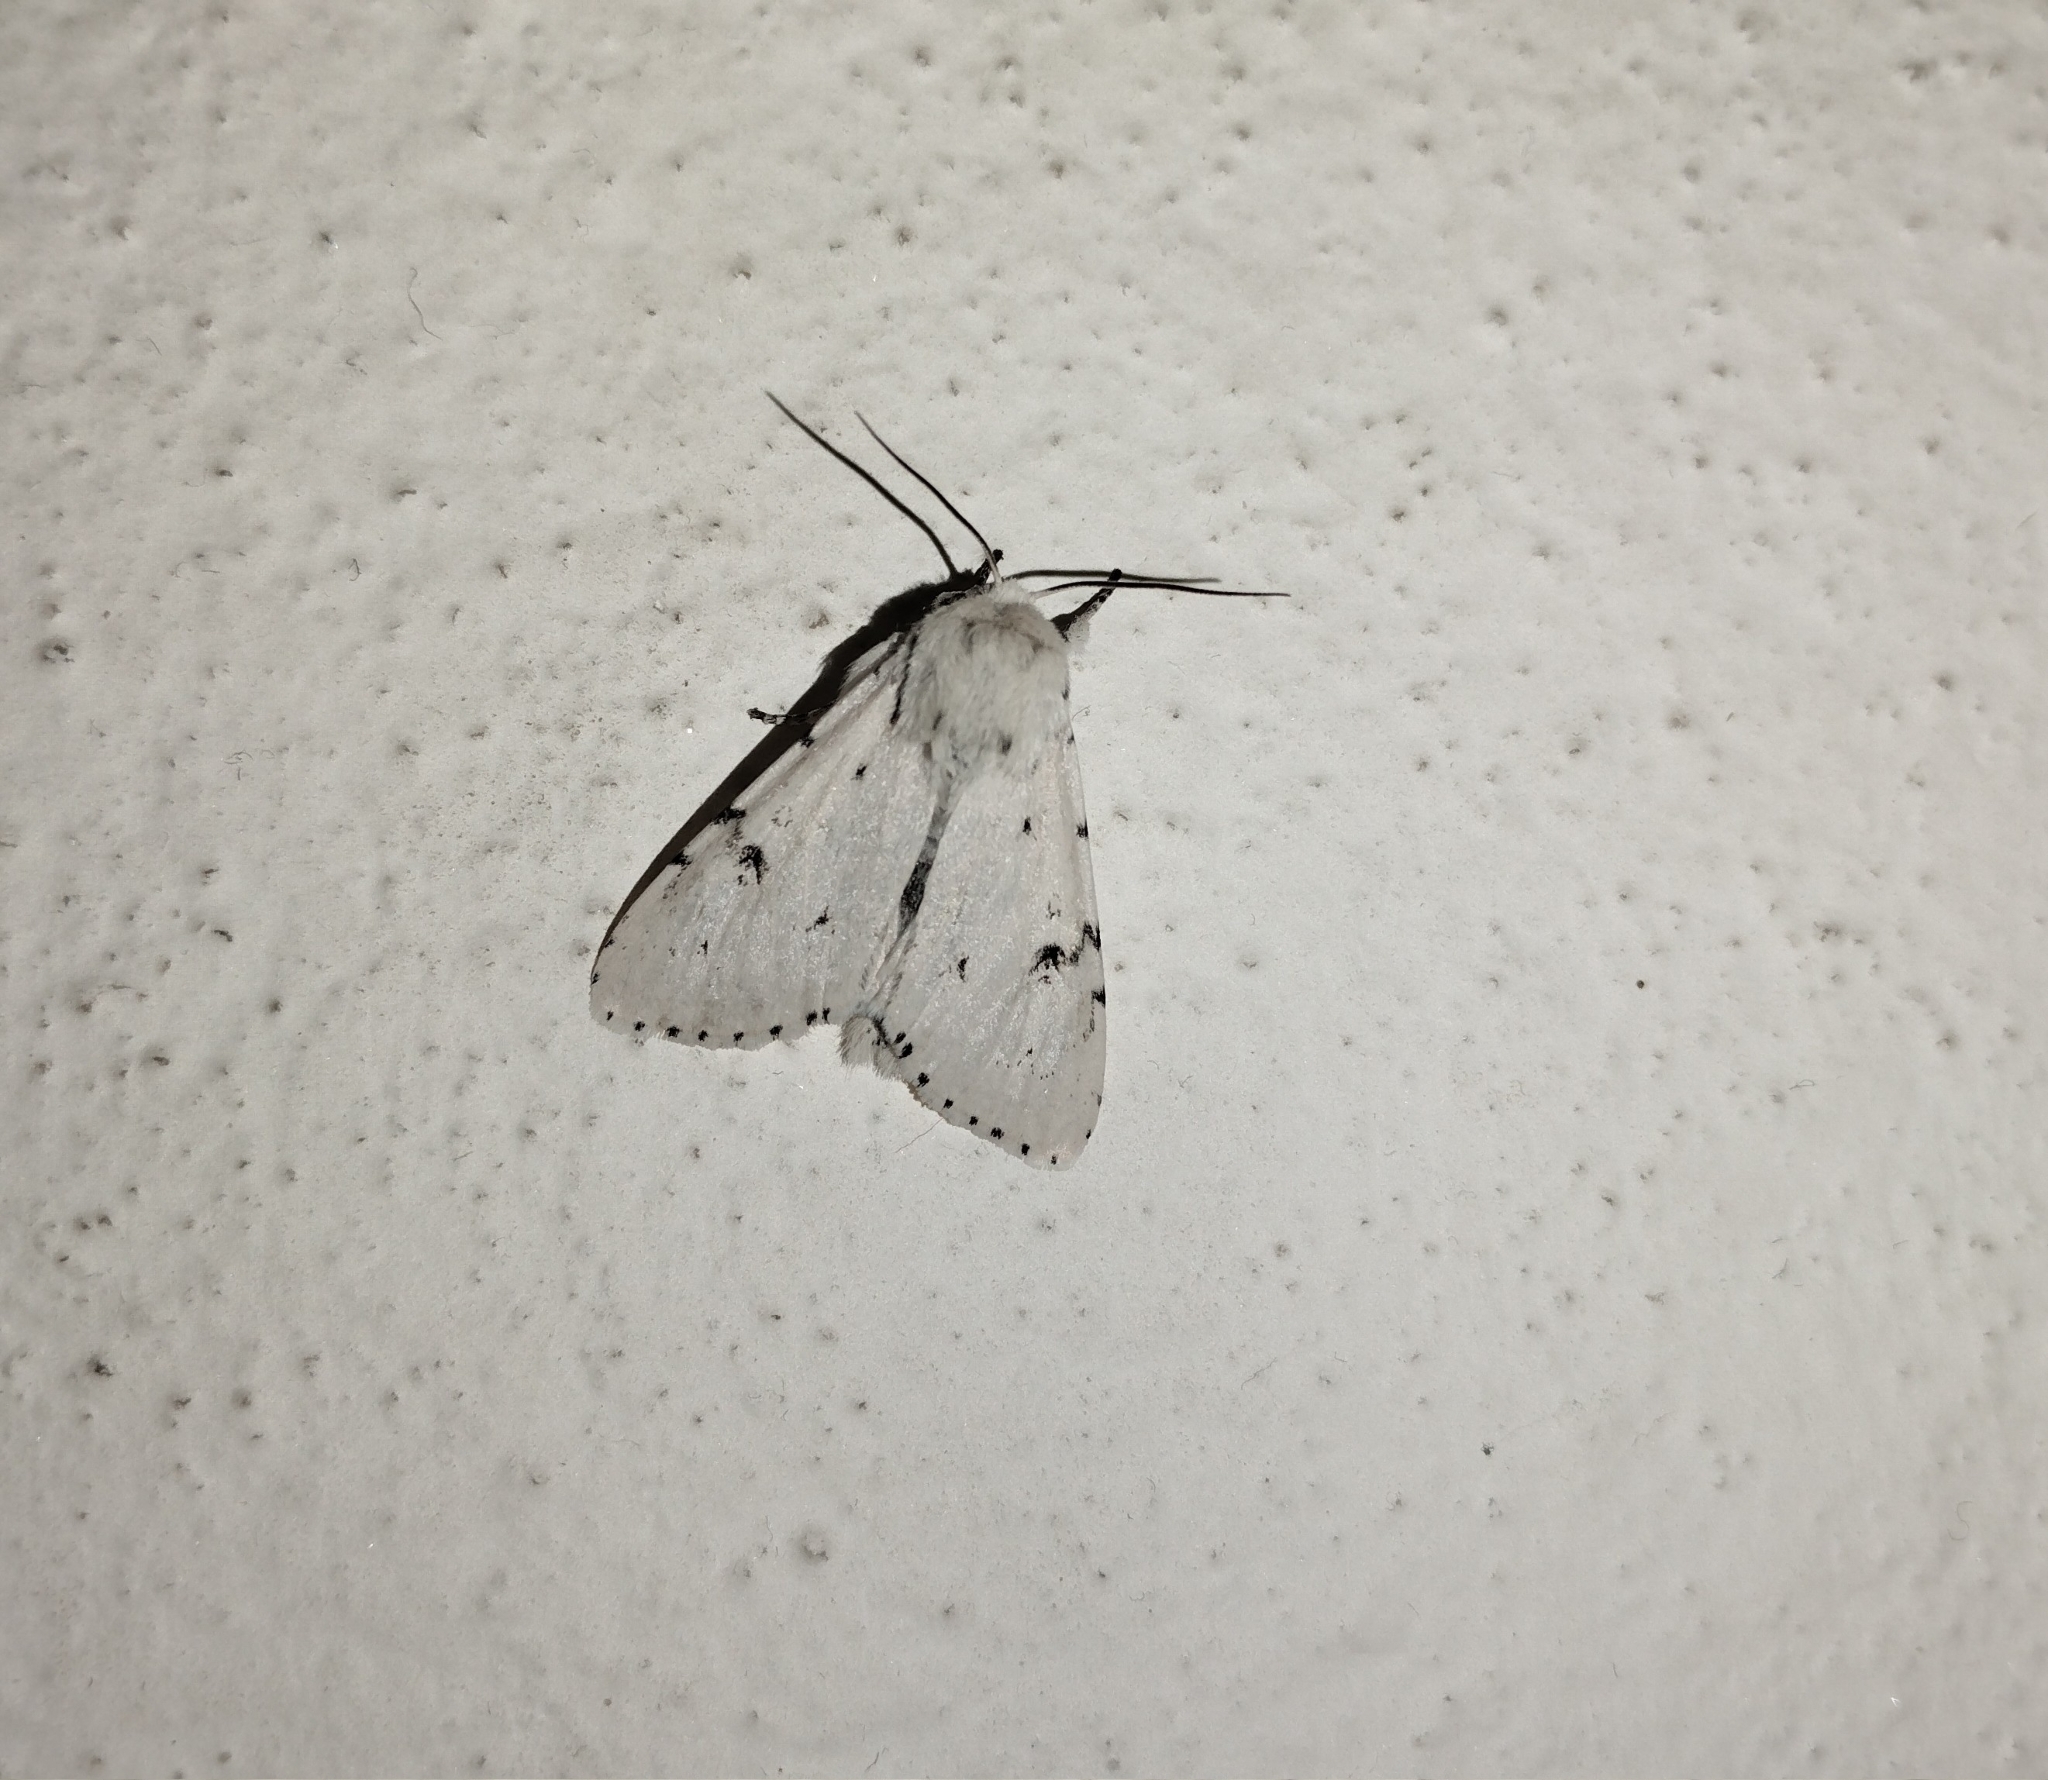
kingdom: Animalia
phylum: Arthropoda
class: Insecta
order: Lepidoptera
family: Noctuidae
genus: Acronicta
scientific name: Acronicta leporina
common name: Miller
